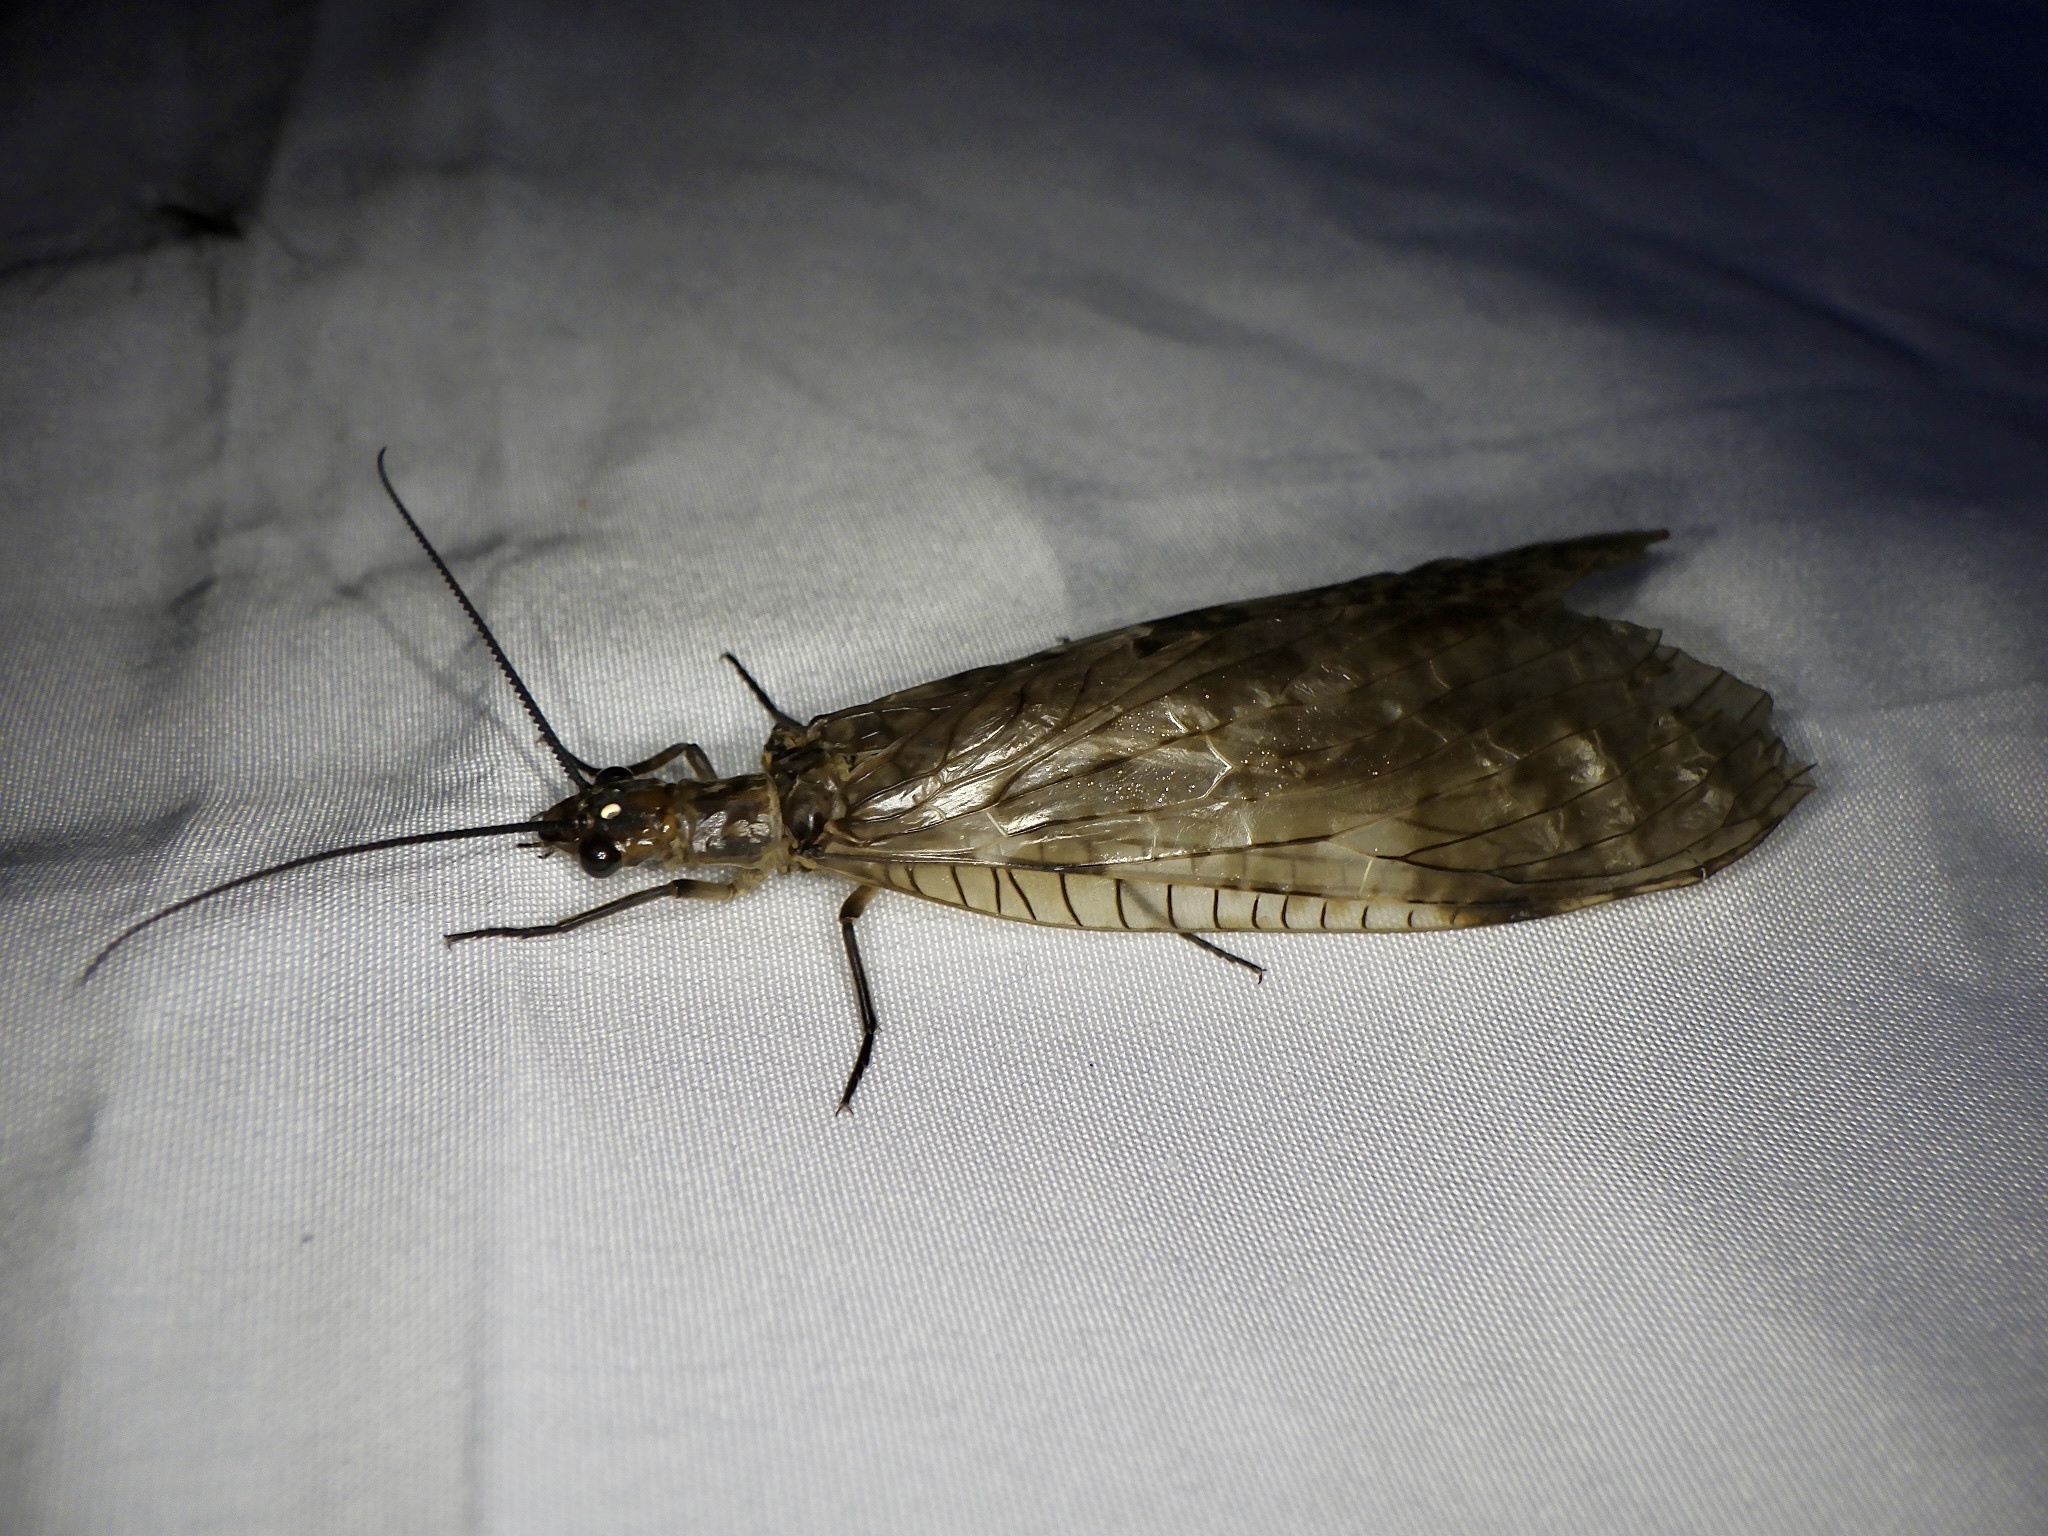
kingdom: Animalia
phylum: Arthropoda
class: Insecta
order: Megaloptera
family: Corydalidae
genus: Parachauliodes
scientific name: Parachauliodes continentalis
